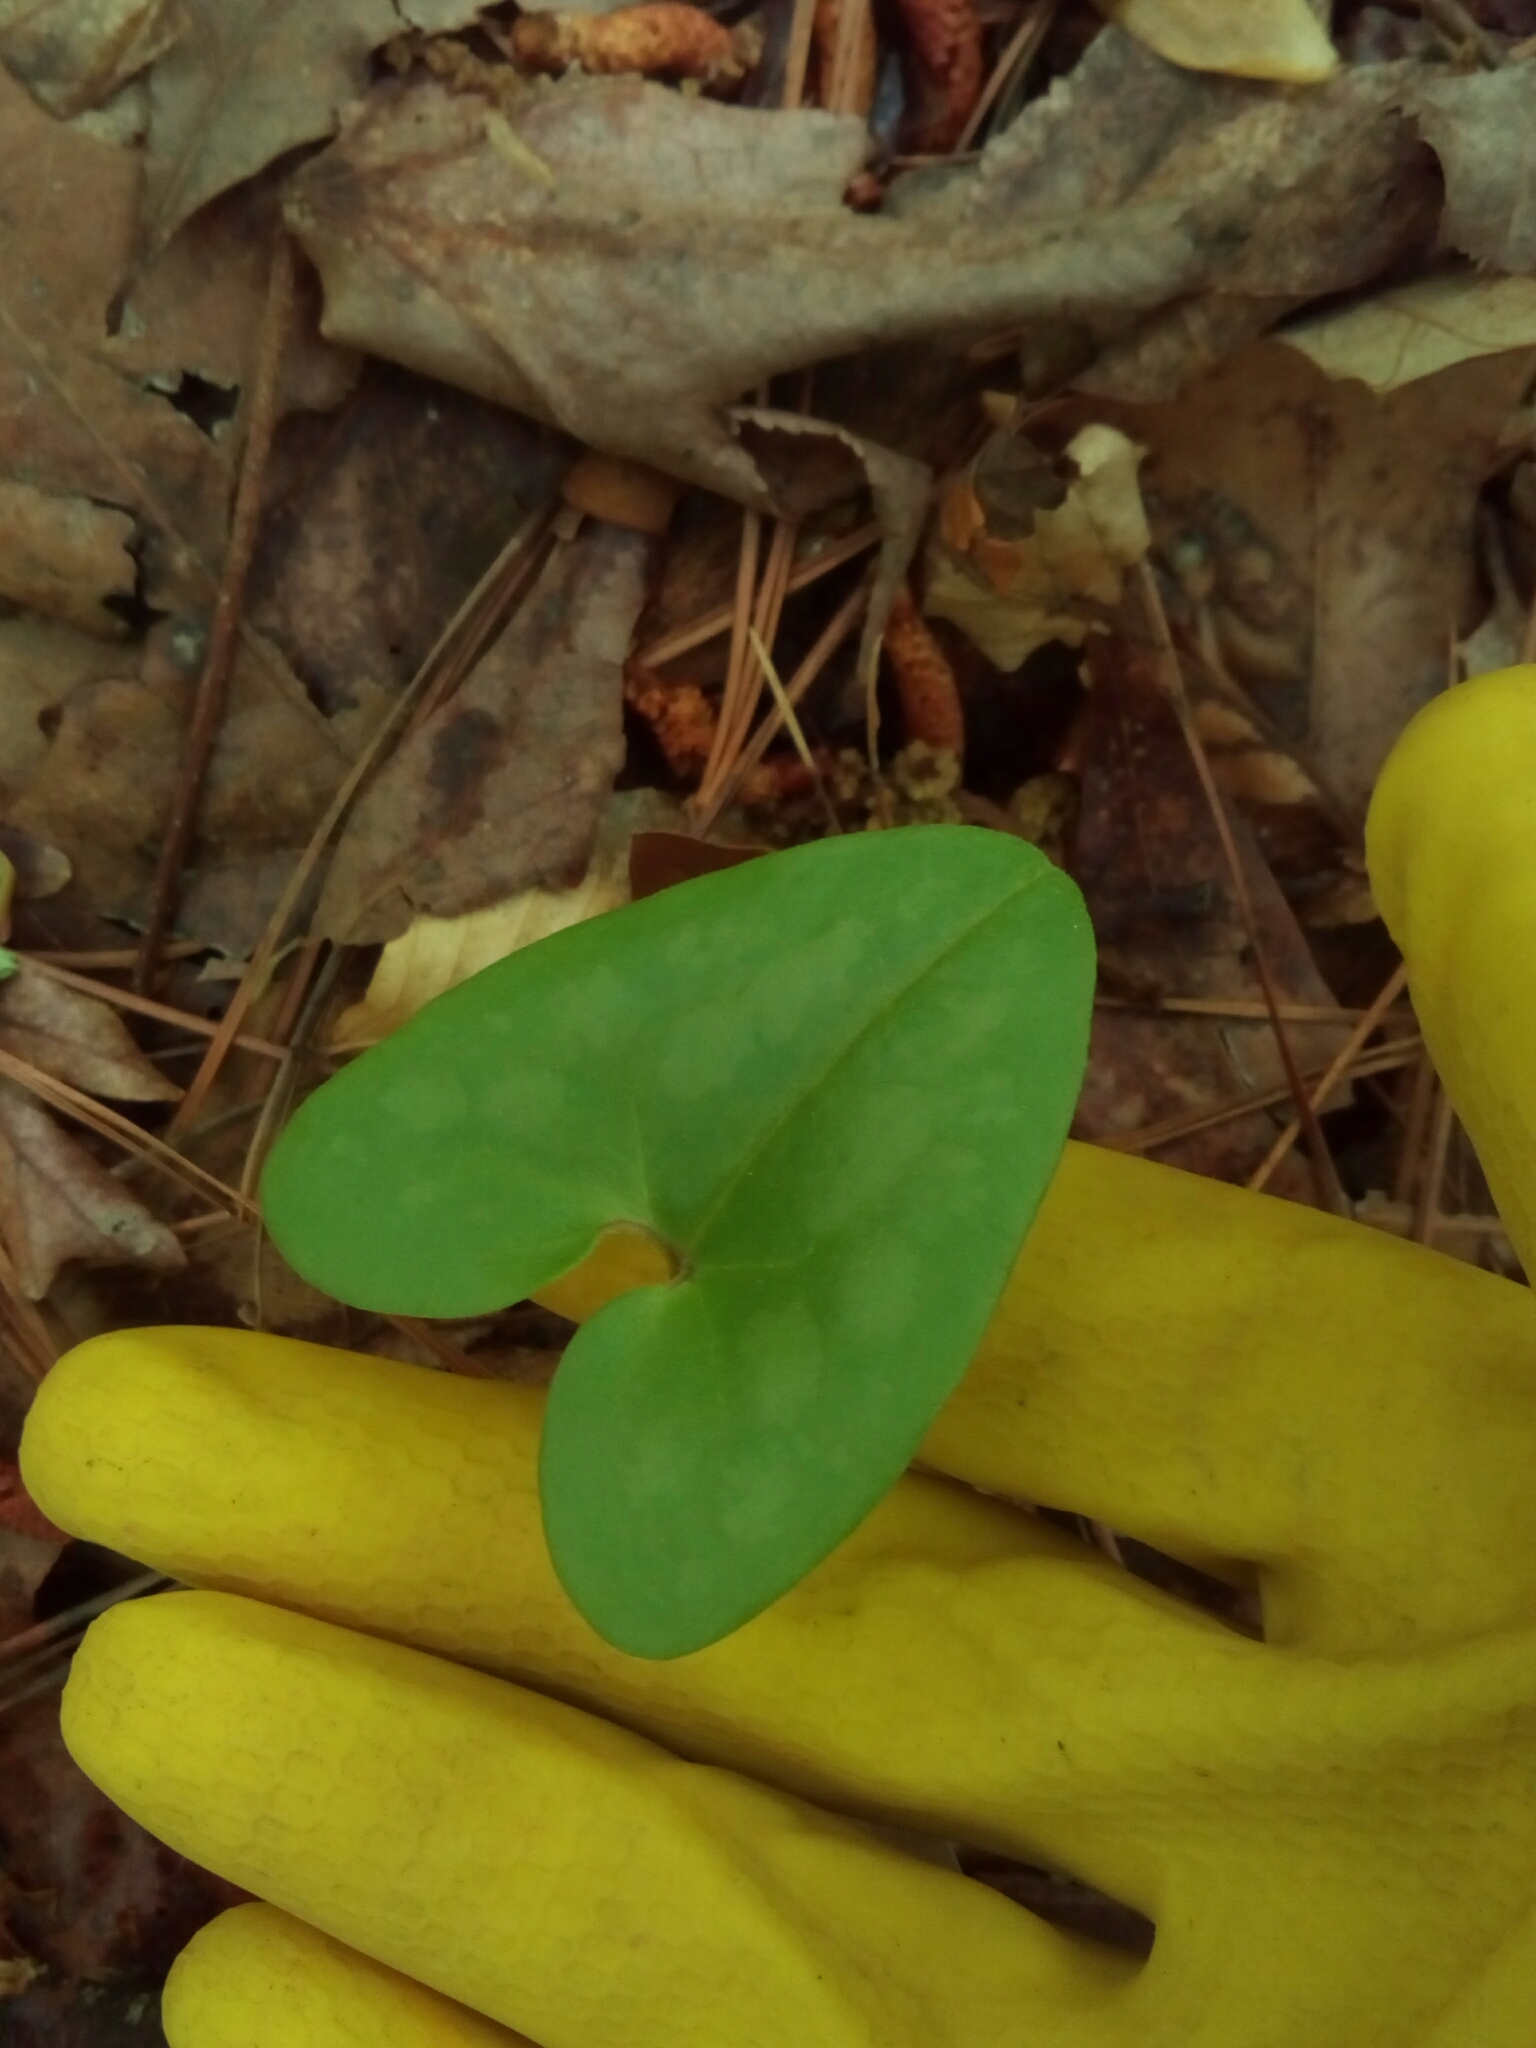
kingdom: Plantae
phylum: Tracheophyta
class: Magnoliopsida
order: Piperales
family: Aristolochiaceae
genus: Hexastylis
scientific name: Hexastylis arifolia
